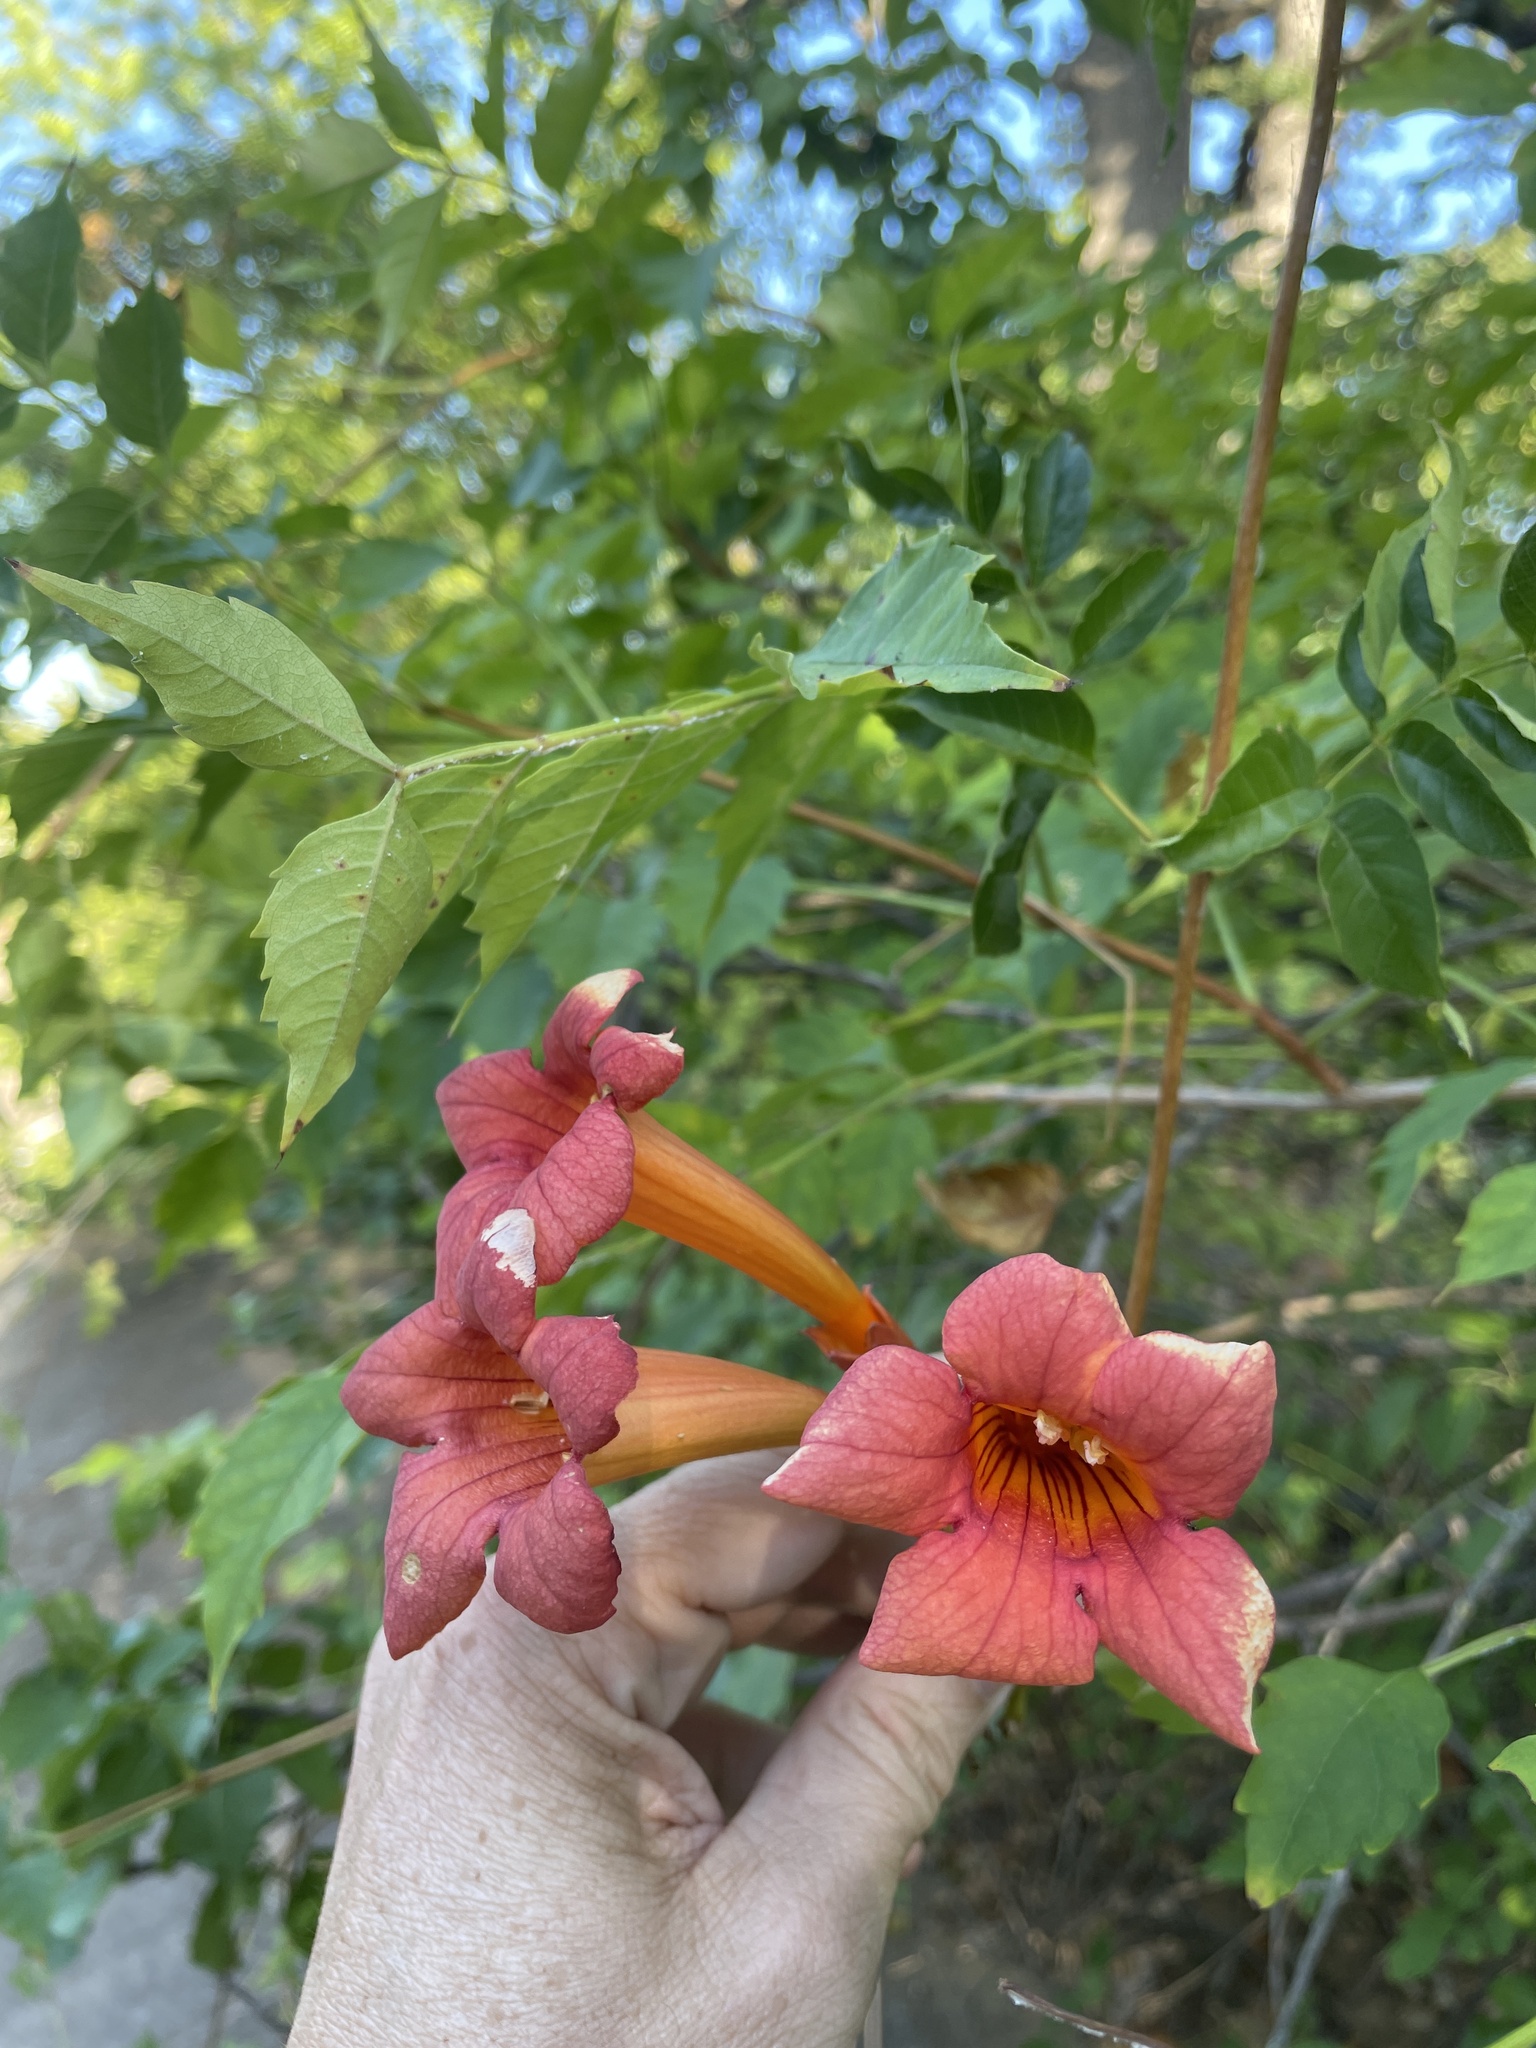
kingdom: Plantae
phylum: Tracheophyta
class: Magnoliopsida
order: Lamiales
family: Bignoniaceae
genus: Campsis
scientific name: Campsis radicans
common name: Trumpet-creeper
